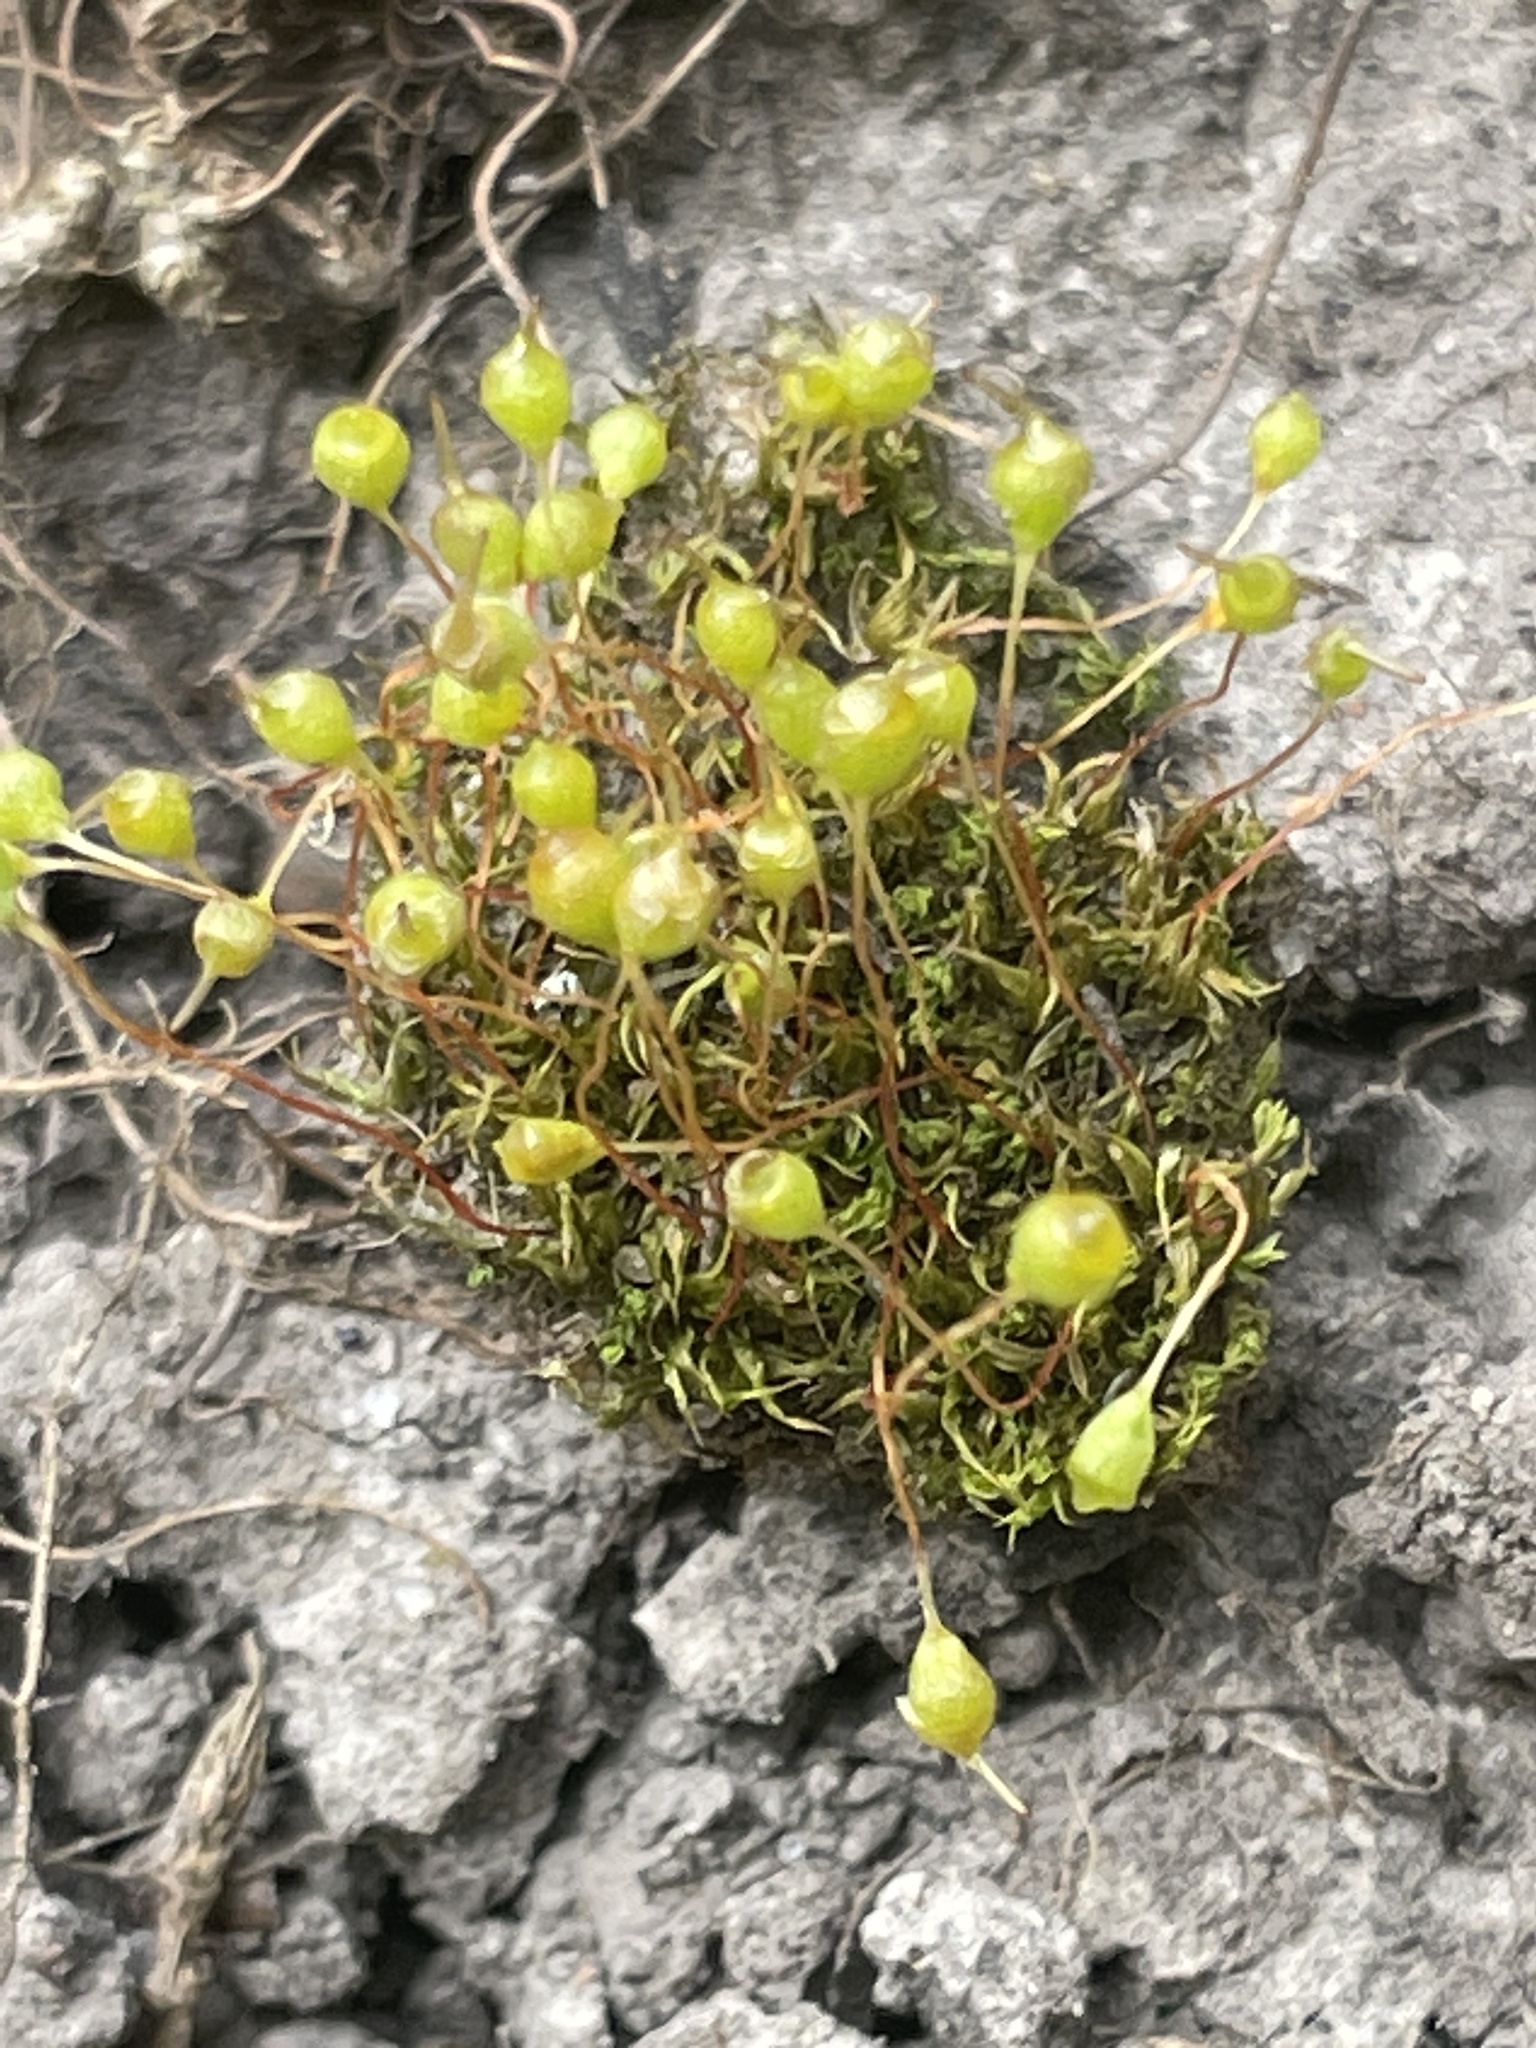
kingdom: Plantae
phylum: Bryophyta
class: Bryopsida
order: Funariales
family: Funariaceae
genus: Physcomitrium
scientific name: Physcomitrium pyriforme
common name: Common bladder-moss
